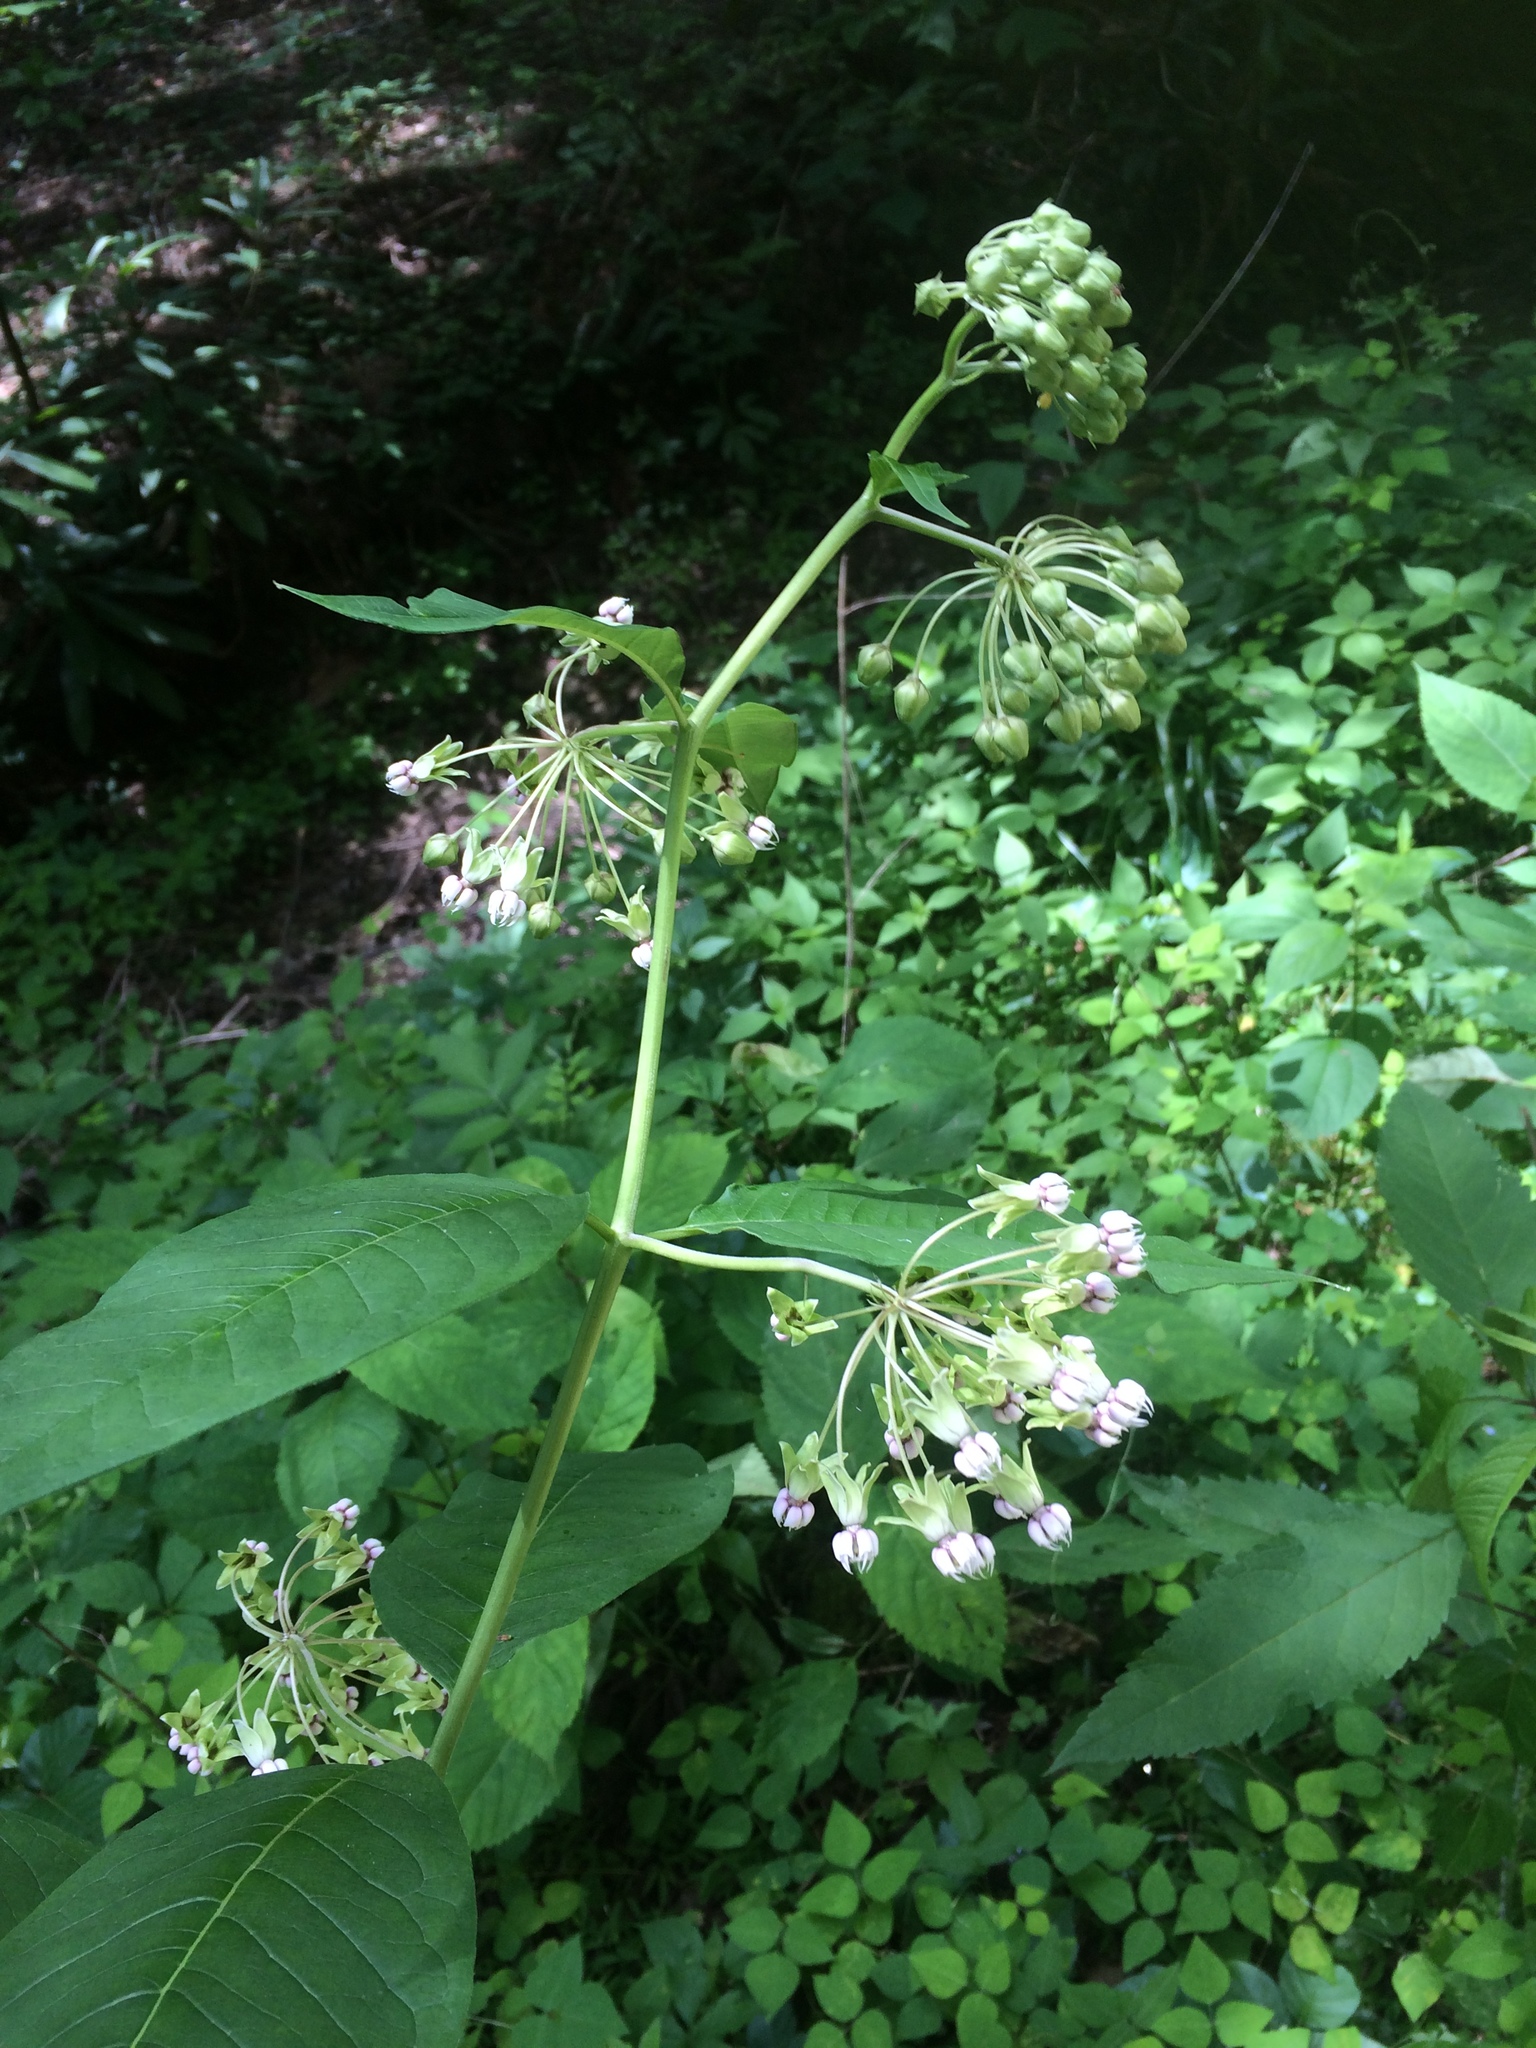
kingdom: Plantae
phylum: Tracheophyta
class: Magnoliopsida
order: Gentianales
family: Apocynaceae
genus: Asclepias
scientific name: Asclepias exaltata
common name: Poke milkweed
